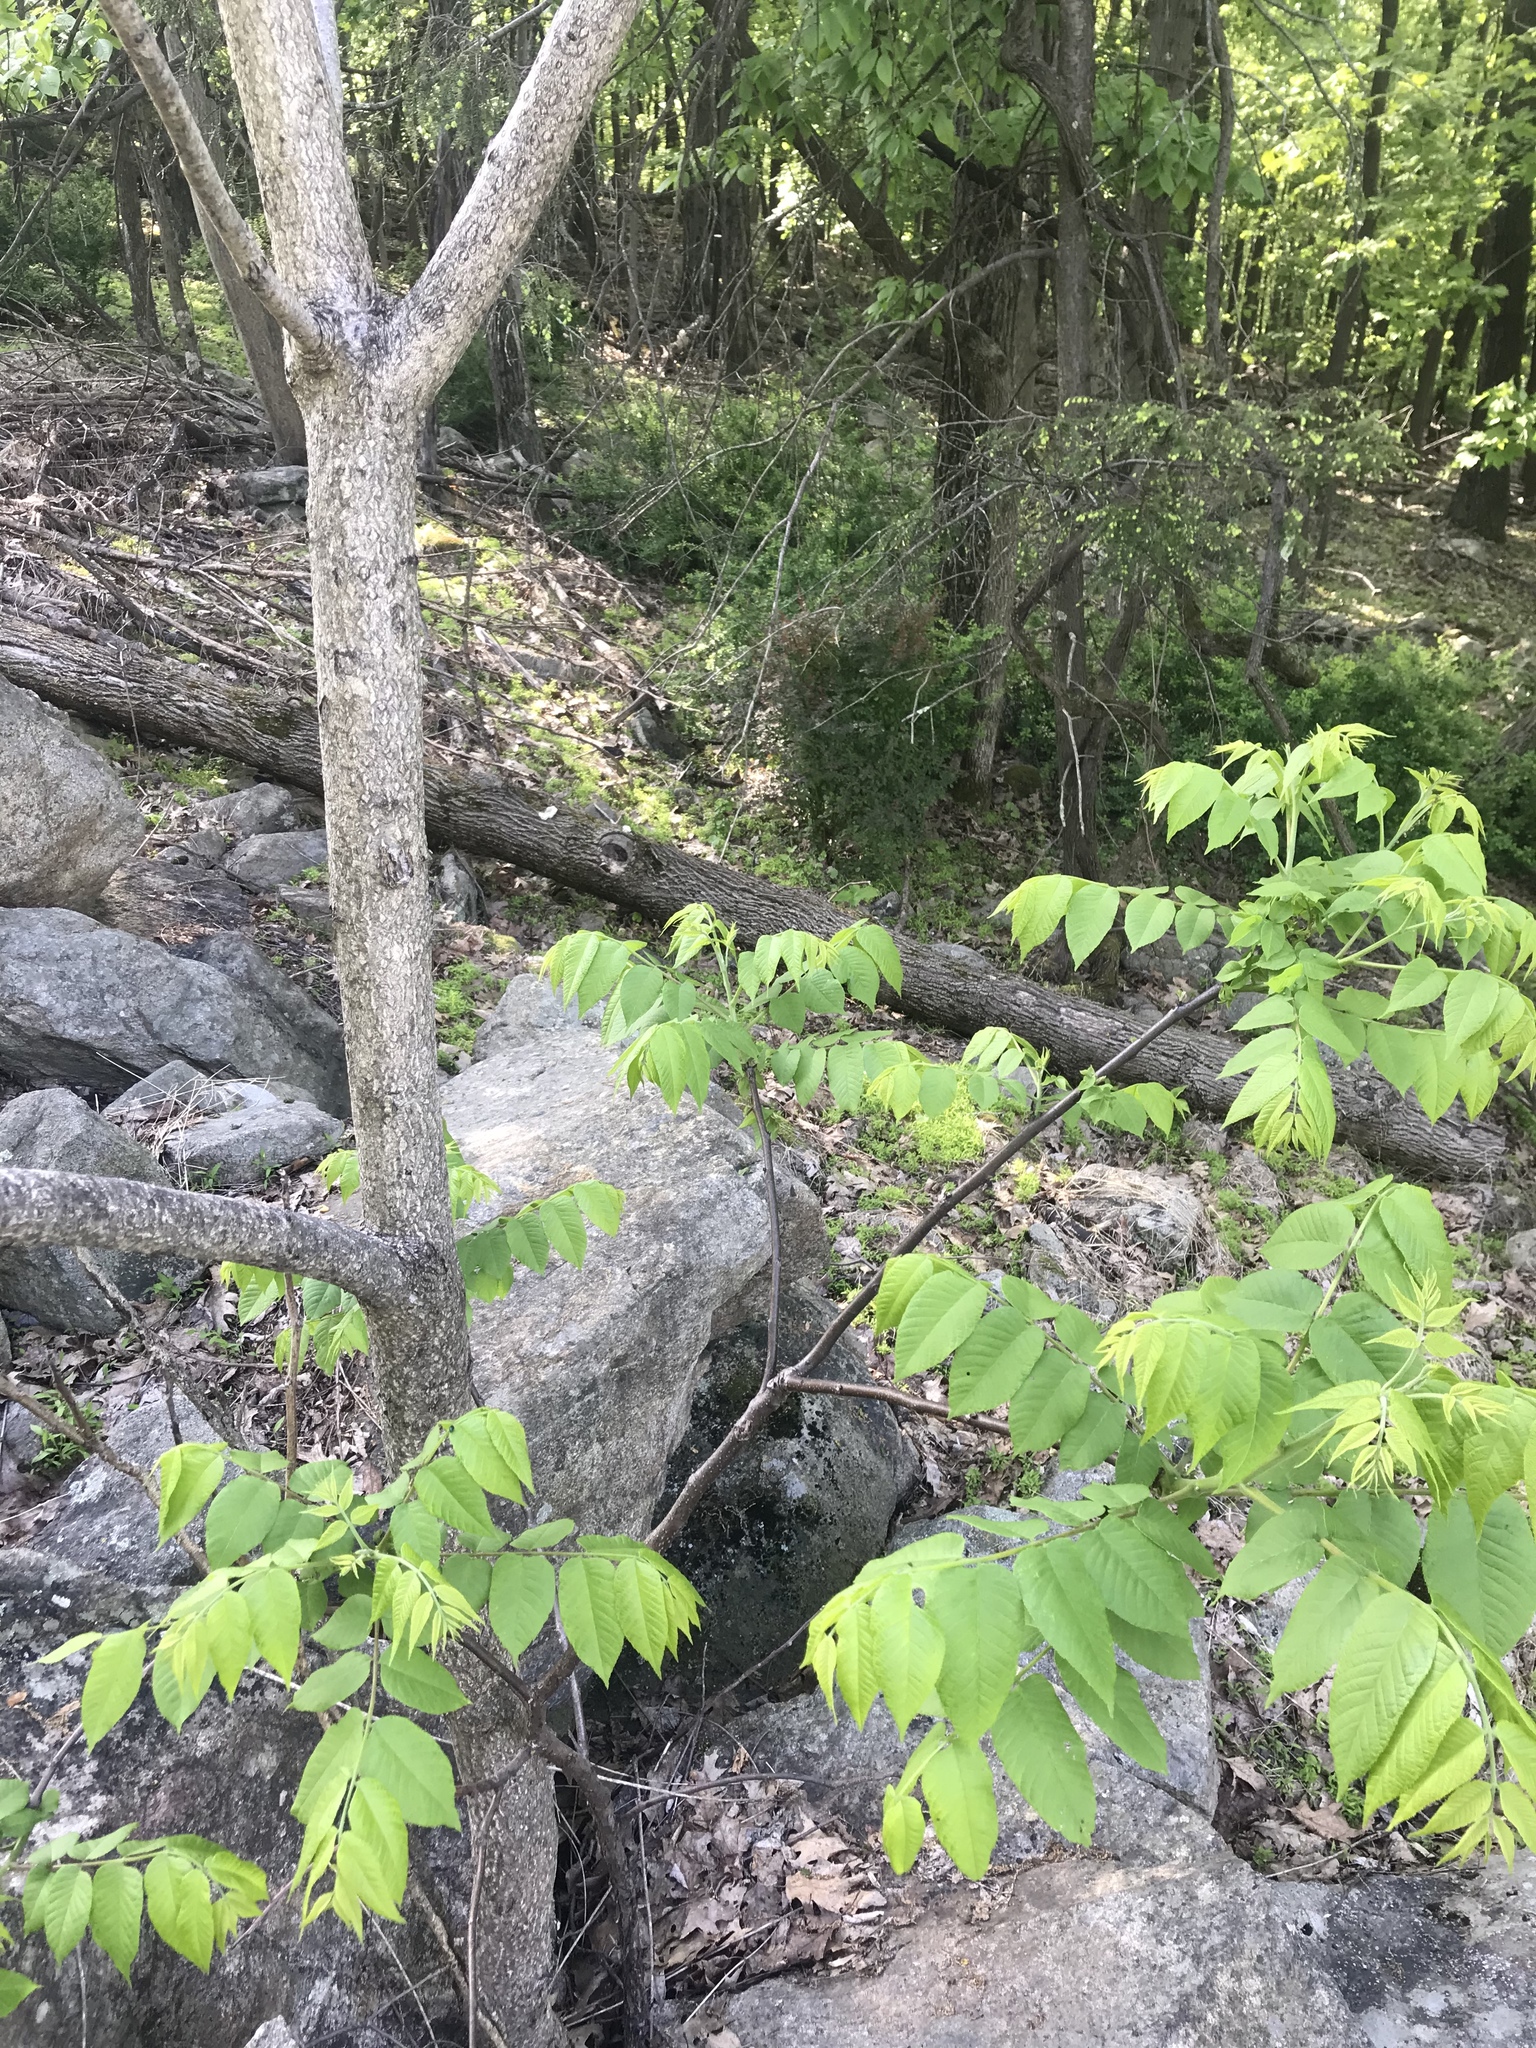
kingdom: Plantae
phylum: Tracheophyta
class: Magnoliopsida
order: Sapindales
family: Simaroubaceae
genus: Ailanthus
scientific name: Ailanthus altissima
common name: Tree-of-heaven
